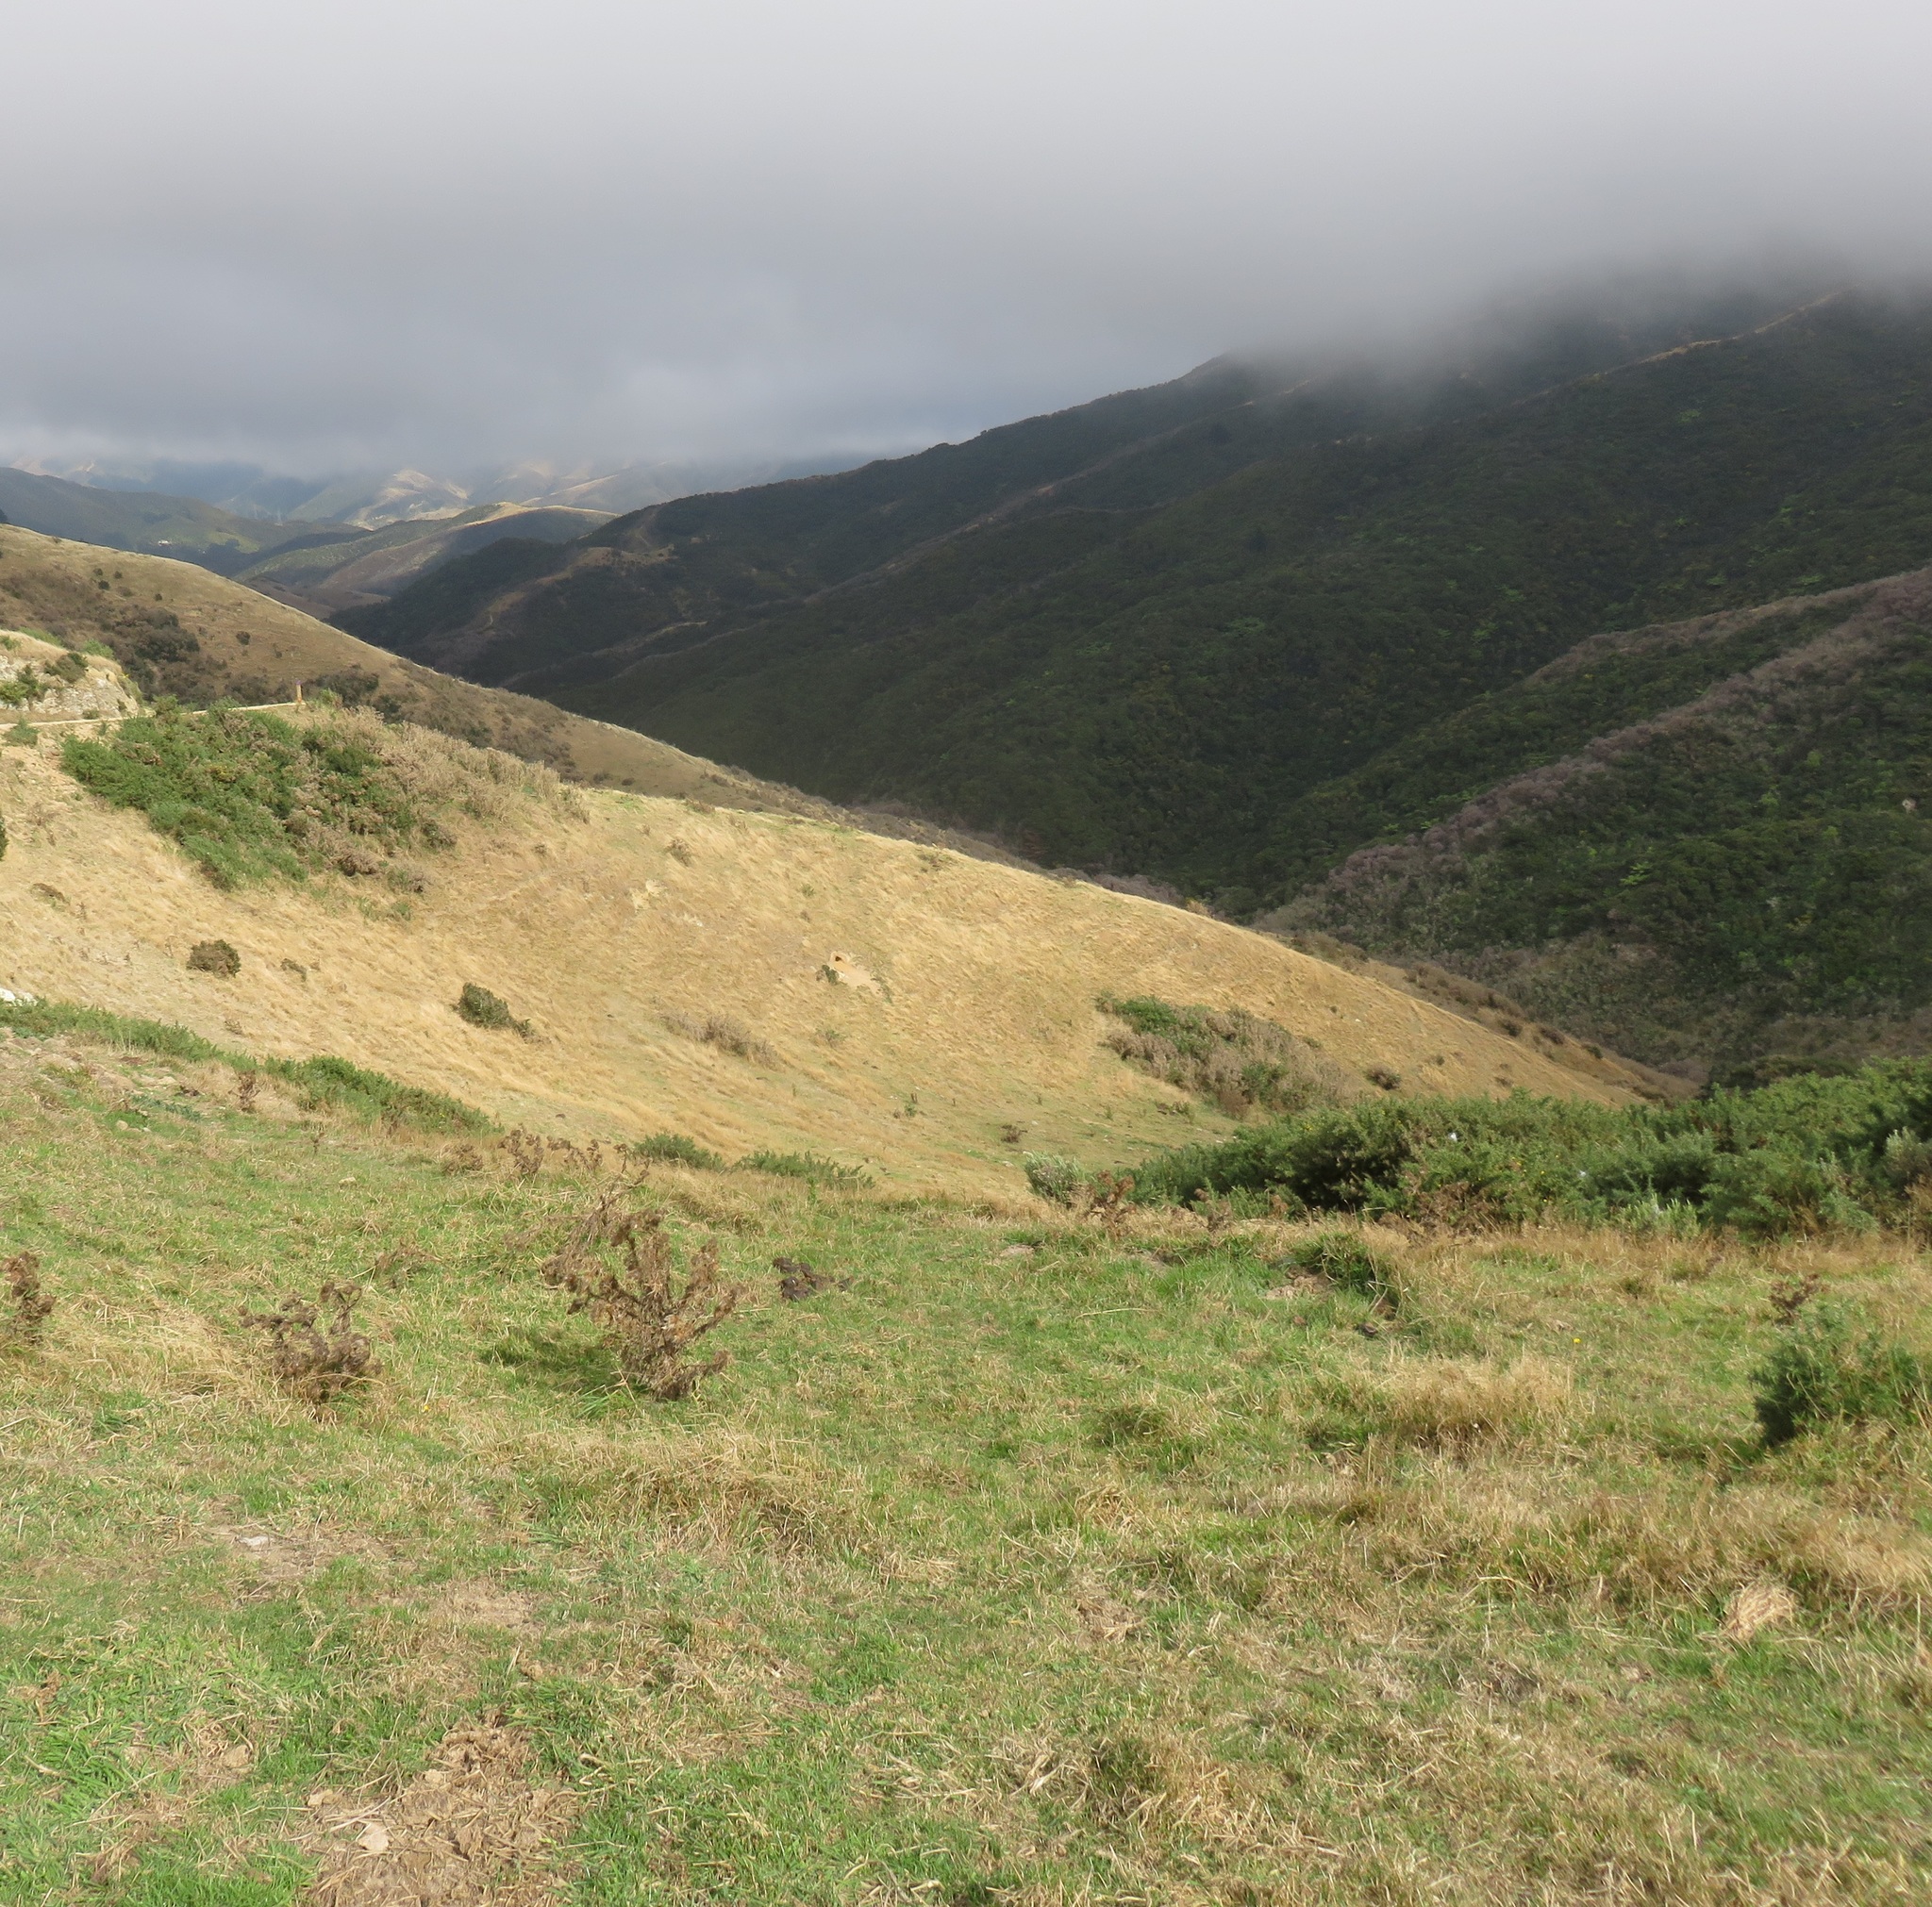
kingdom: Animalia
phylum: Chordata
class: Mammalia
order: Lagomorpha
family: Leporidae
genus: Oryctolagus
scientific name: Oryctolagus cuniculus
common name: European rabbit
